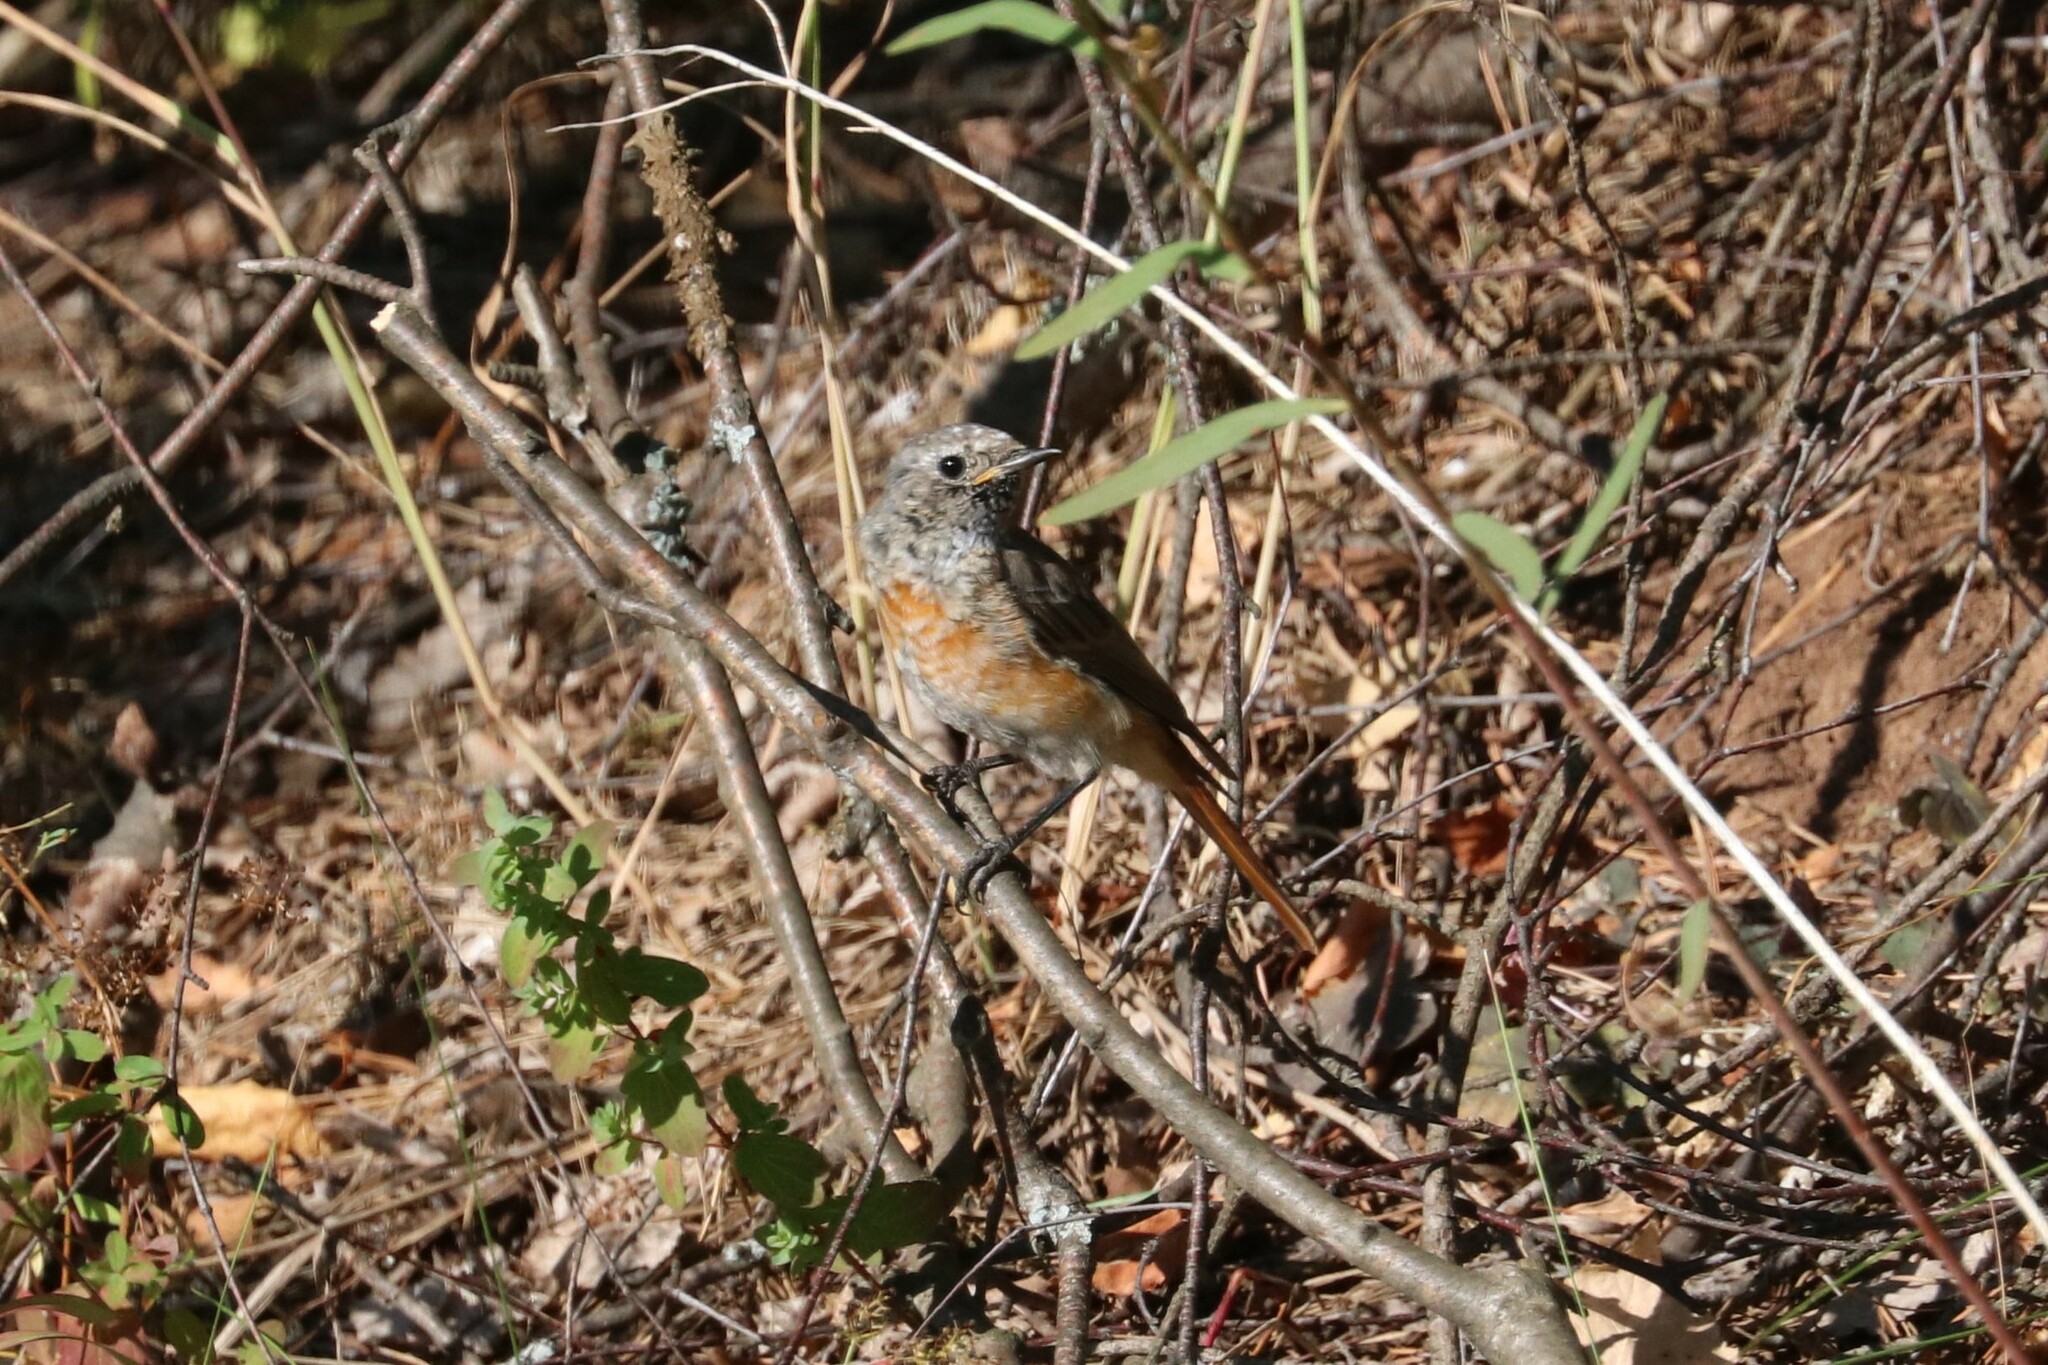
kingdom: Animalia
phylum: Chordata
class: Aves
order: Passeriformes
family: Muscicapidae
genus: Phoenicurus
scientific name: Phoenicurus phoenicurus
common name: Common redstart
